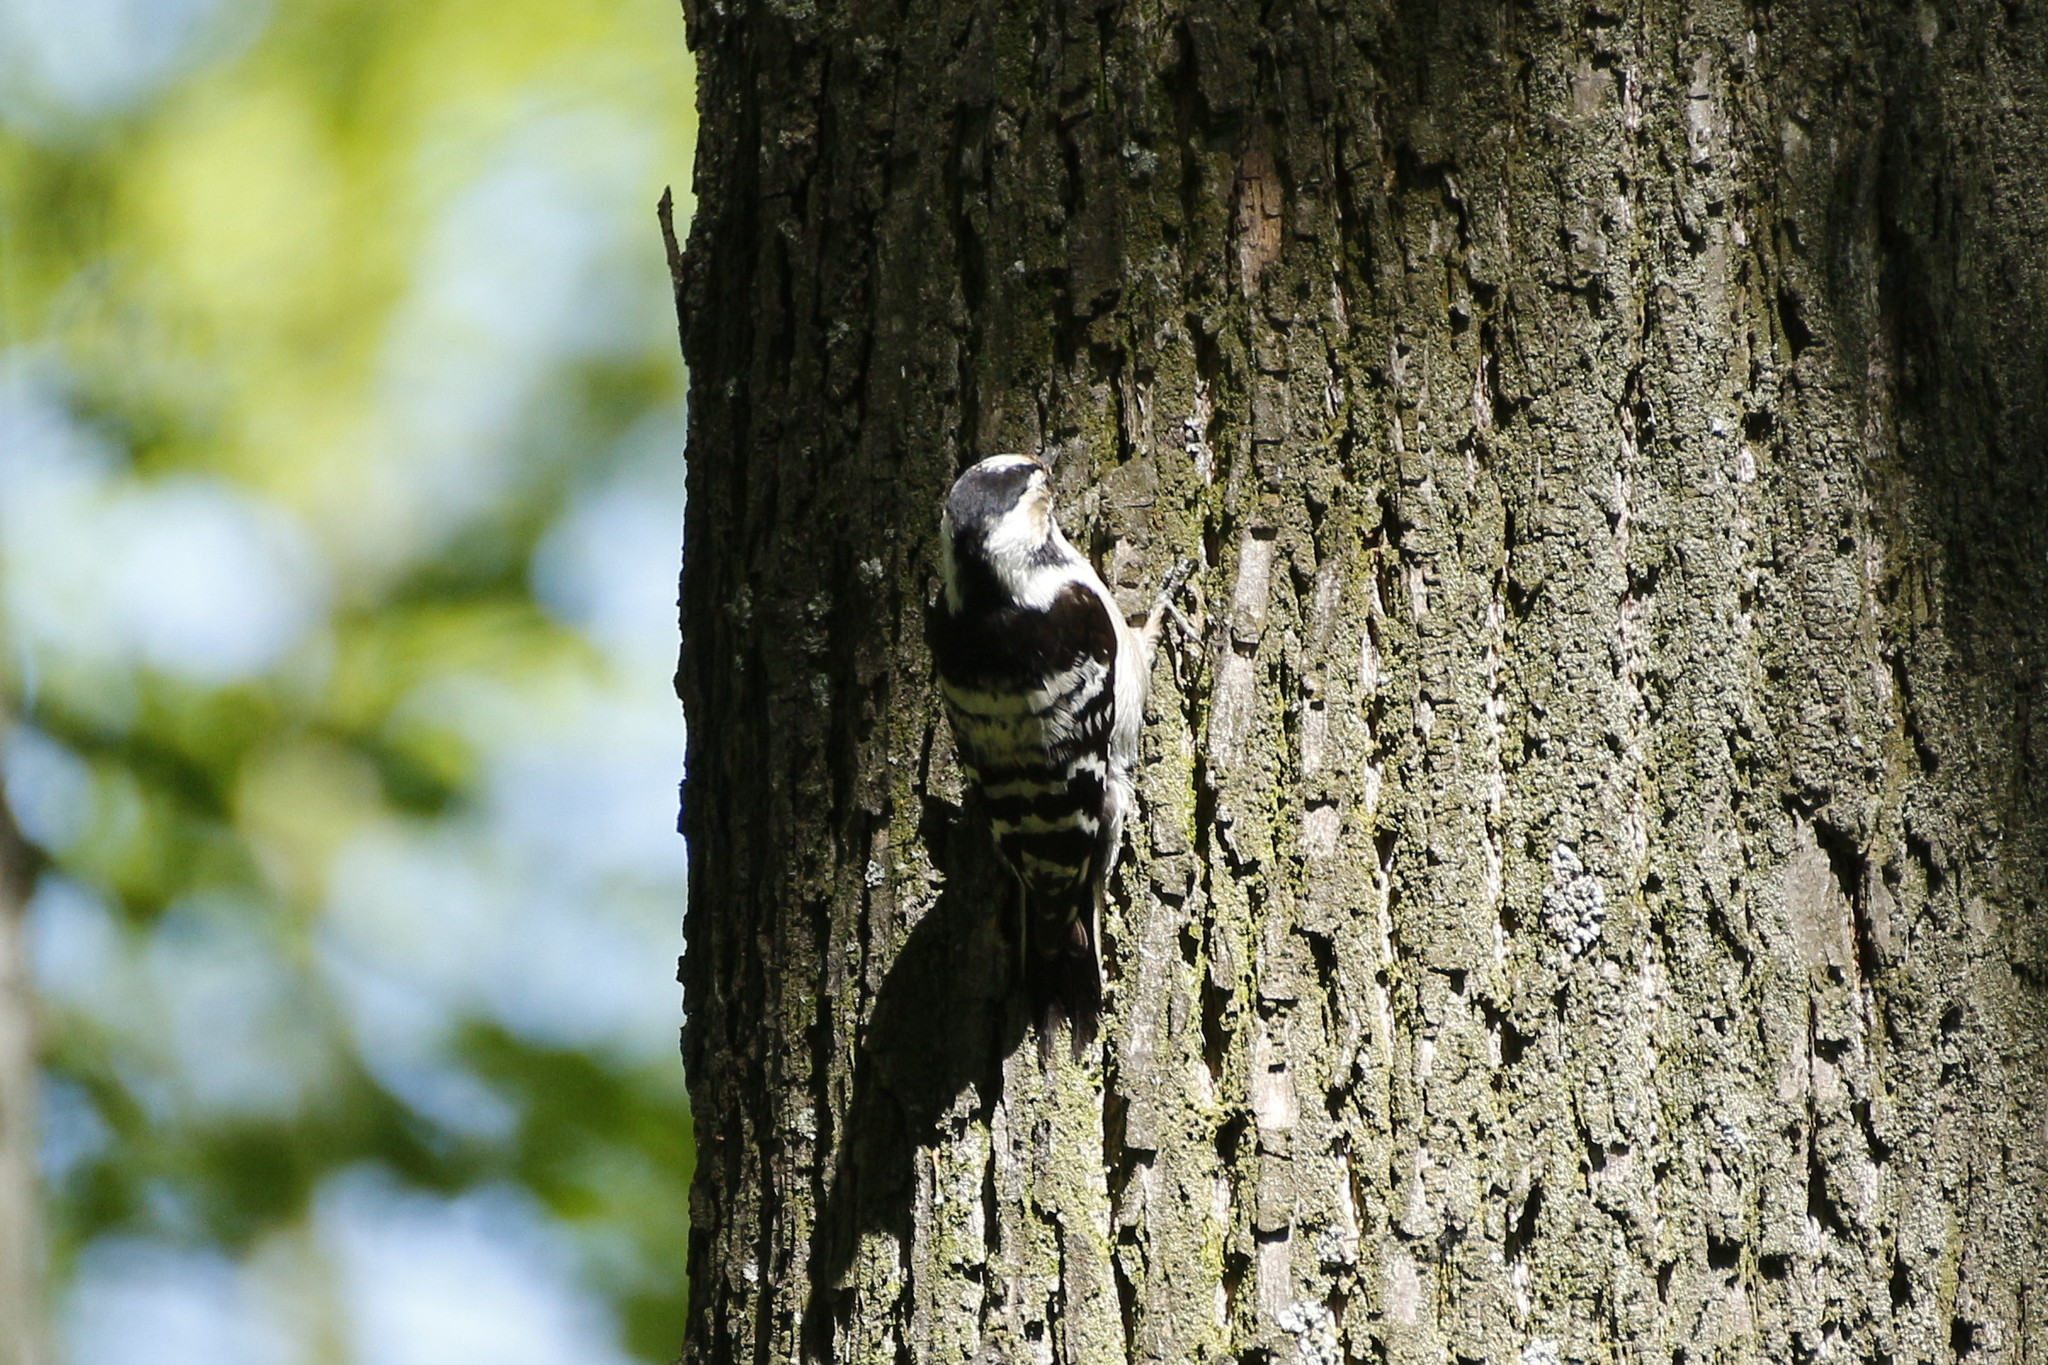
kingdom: Animalia
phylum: Chordata
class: Aves
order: Piciformes
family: Picidae
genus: Dryobates
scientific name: Dryobates minor
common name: Lesser spotted woodpecker
